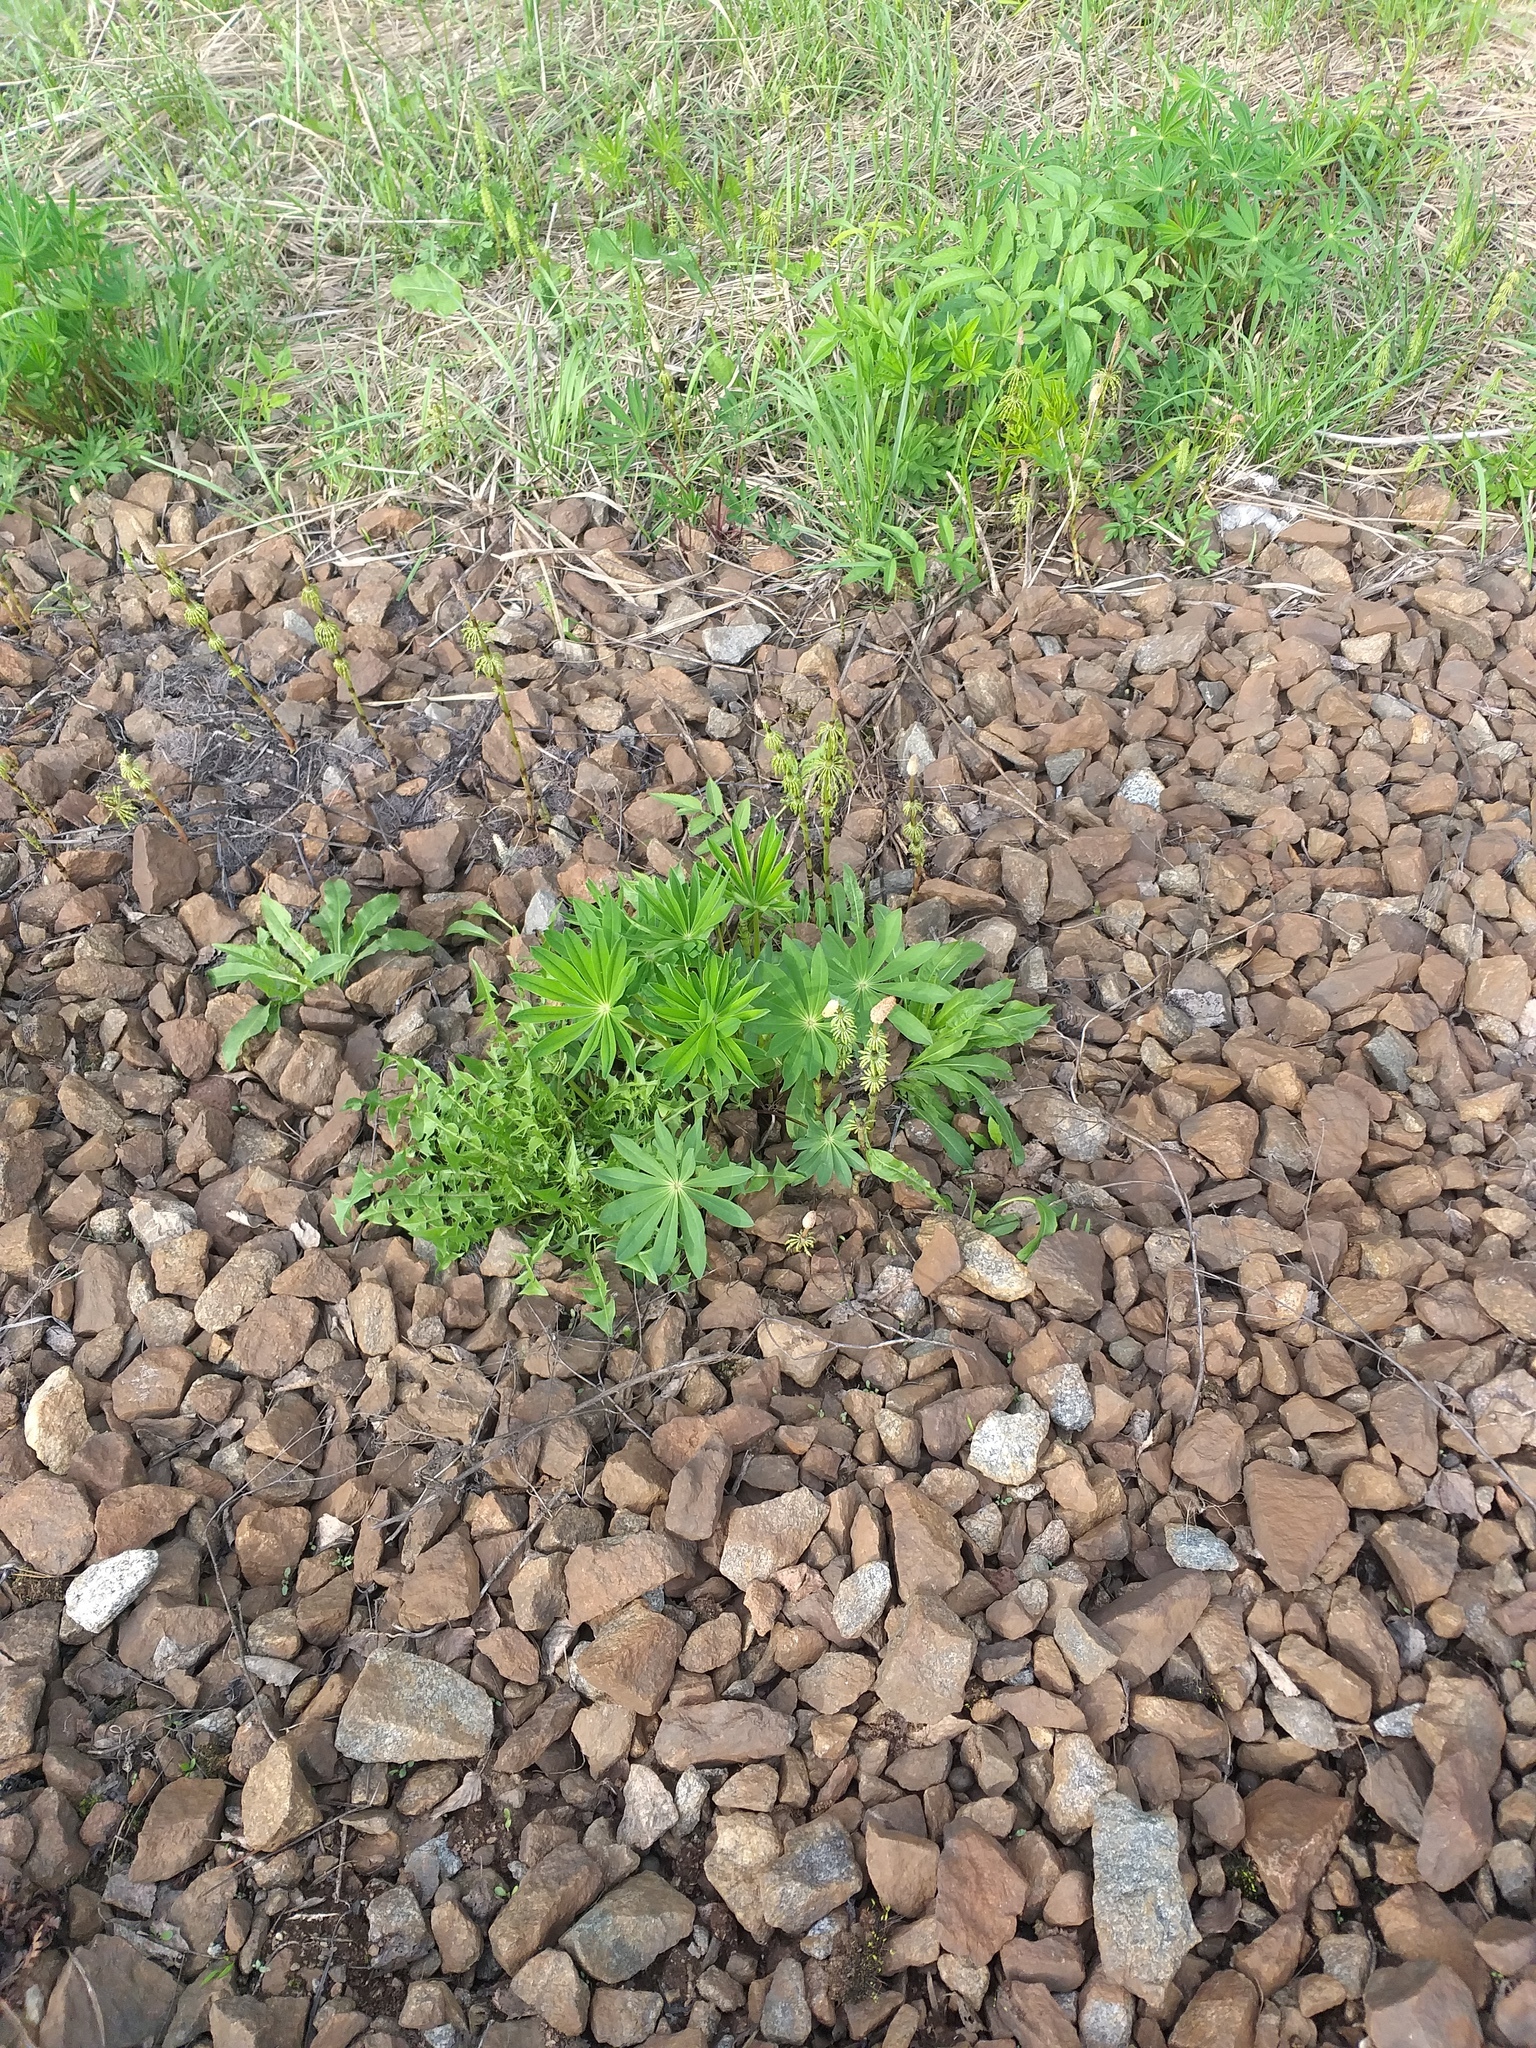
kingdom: Plantae
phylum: Tracheophyta
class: Magnoliopsida
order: Fabales
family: Fabaceae
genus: Lupinus
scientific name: Lupinus polyphyllus
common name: Garden lupin
